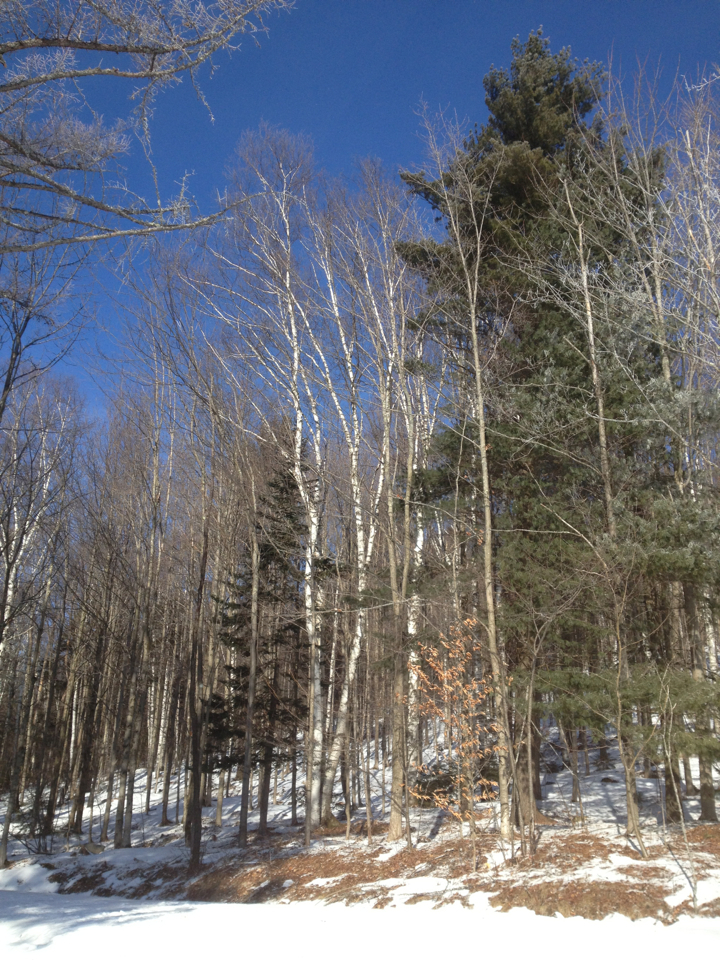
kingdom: Plantae
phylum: Tracheophyta
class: Magnoliopsida
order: Fagales
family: Betulaceae
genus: Betula
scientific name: Betula papyrifera
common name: Paper birch
